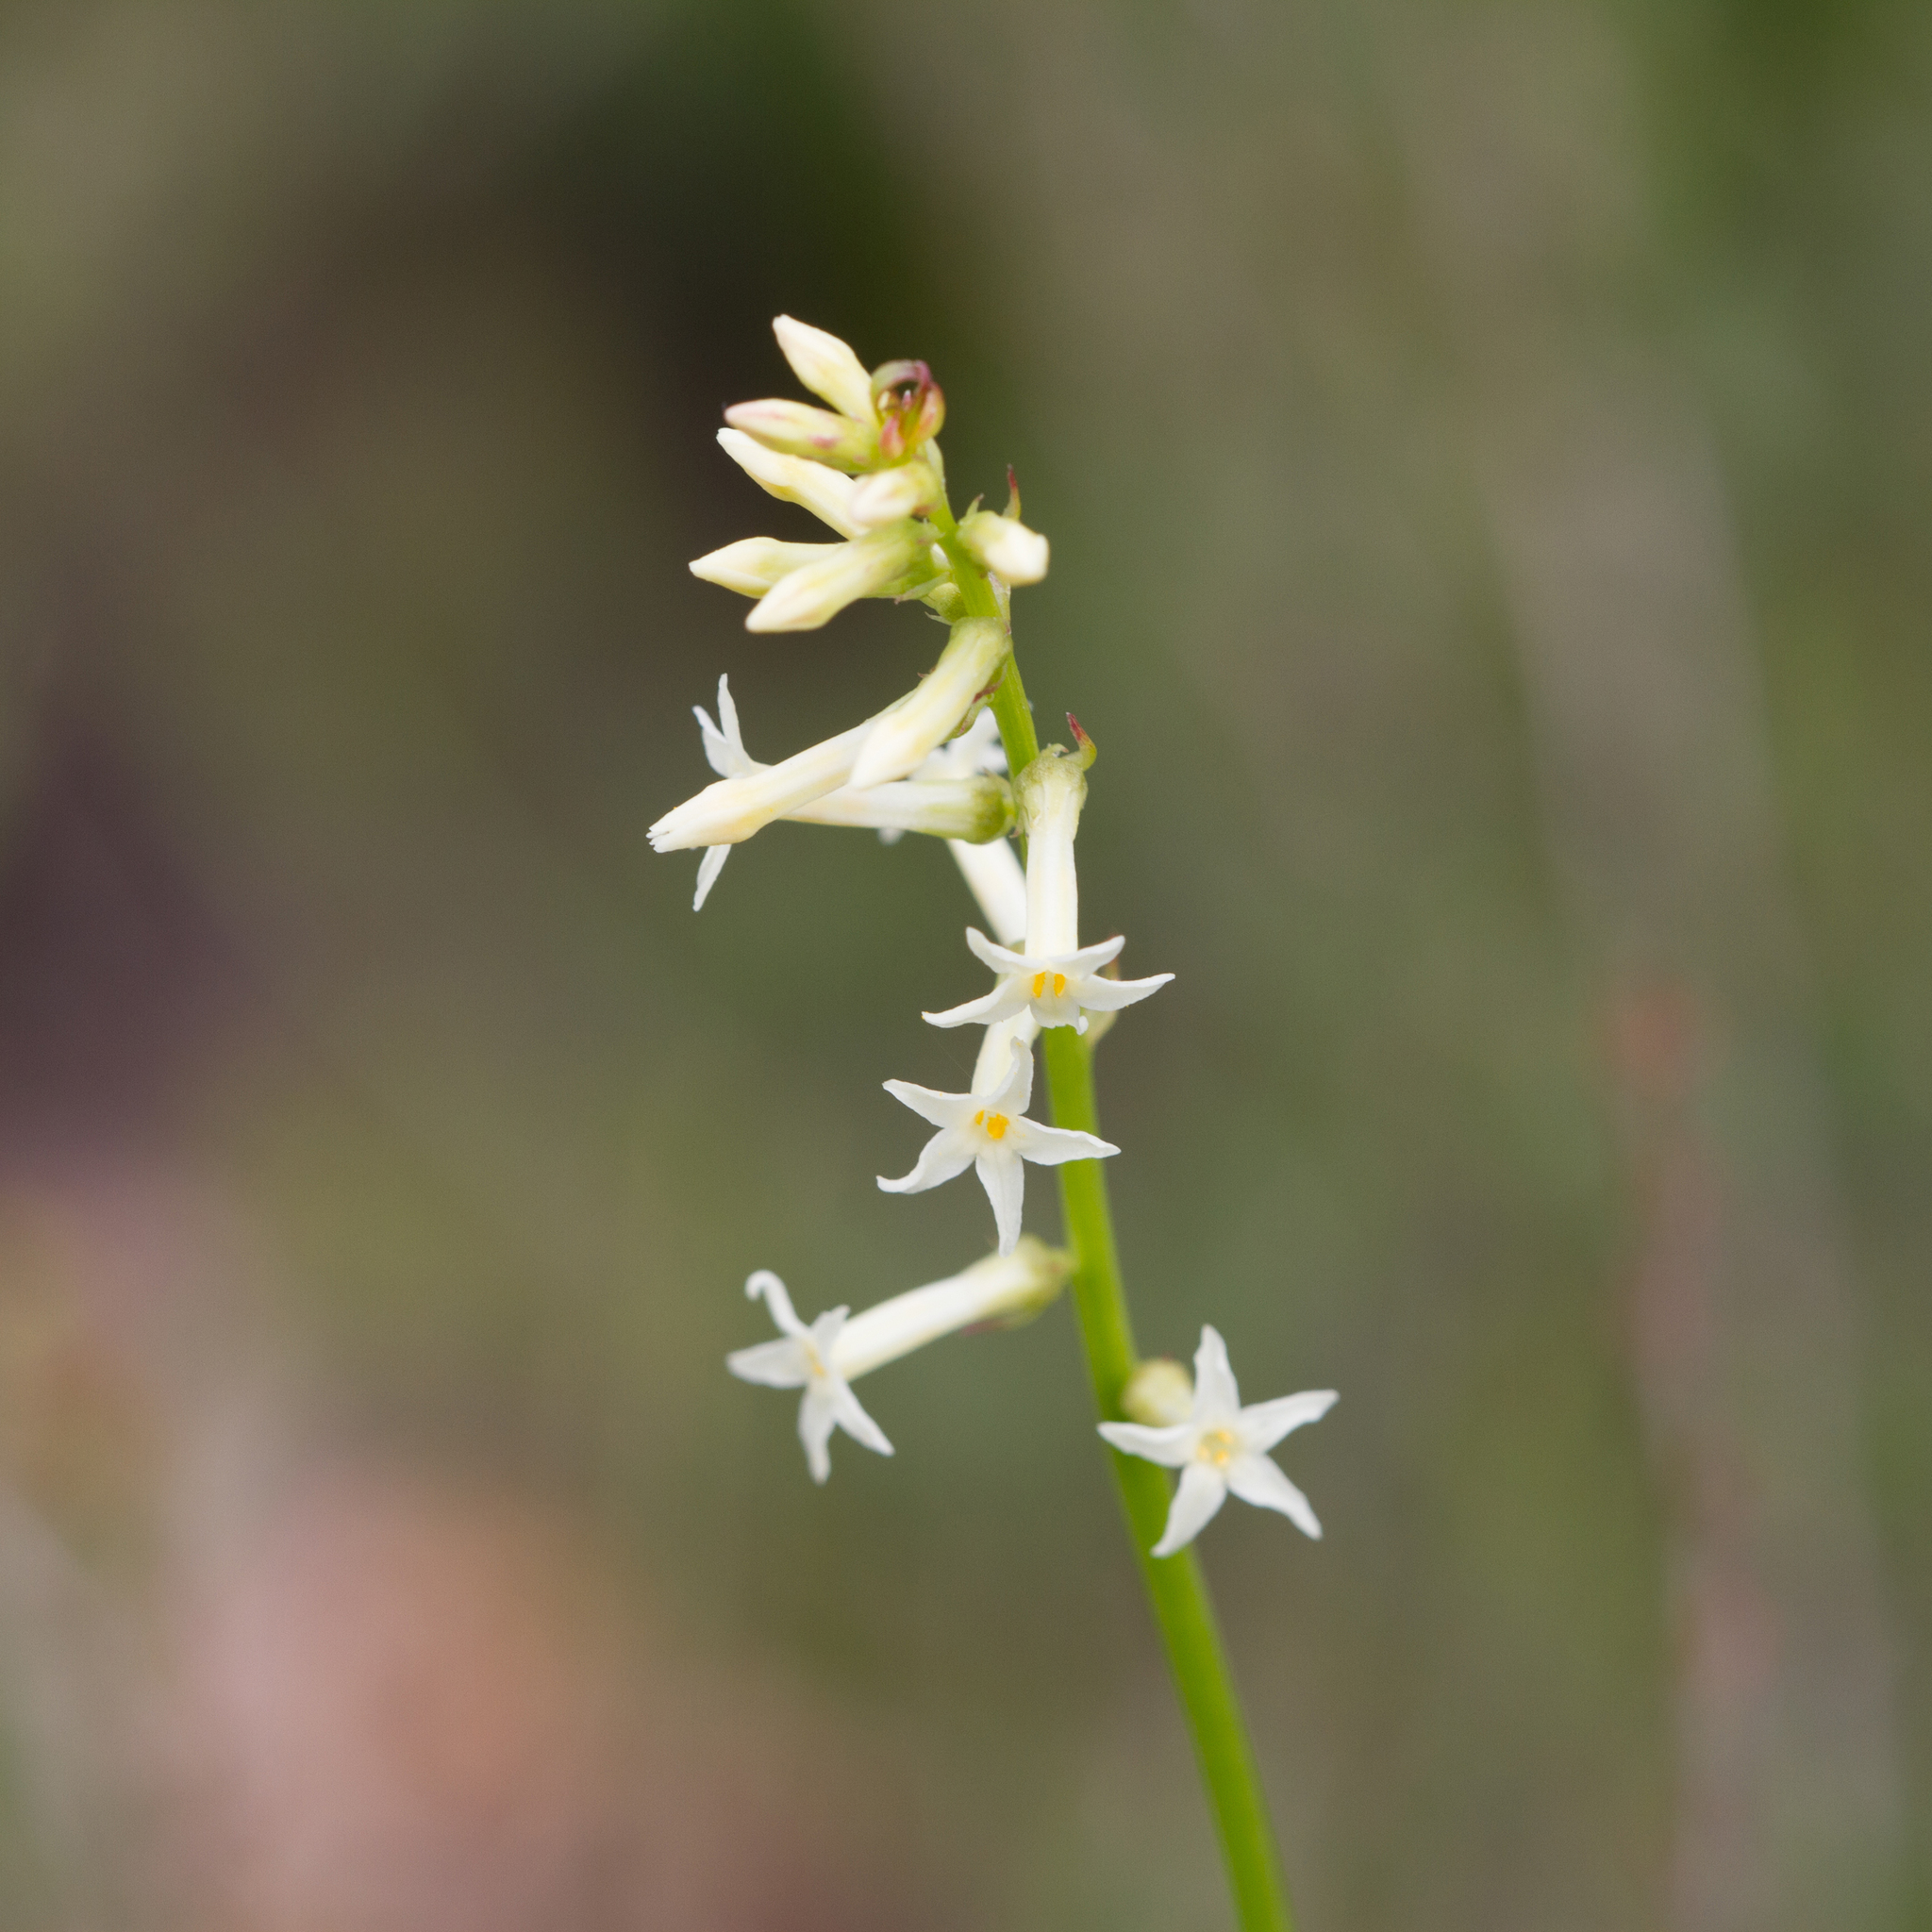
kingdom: Plantae
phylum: Tracheophyta
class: Magnoliopsida
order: Celastrales
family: Celastraceae
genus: Stackhousia
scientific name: Stackhousia monogyna
